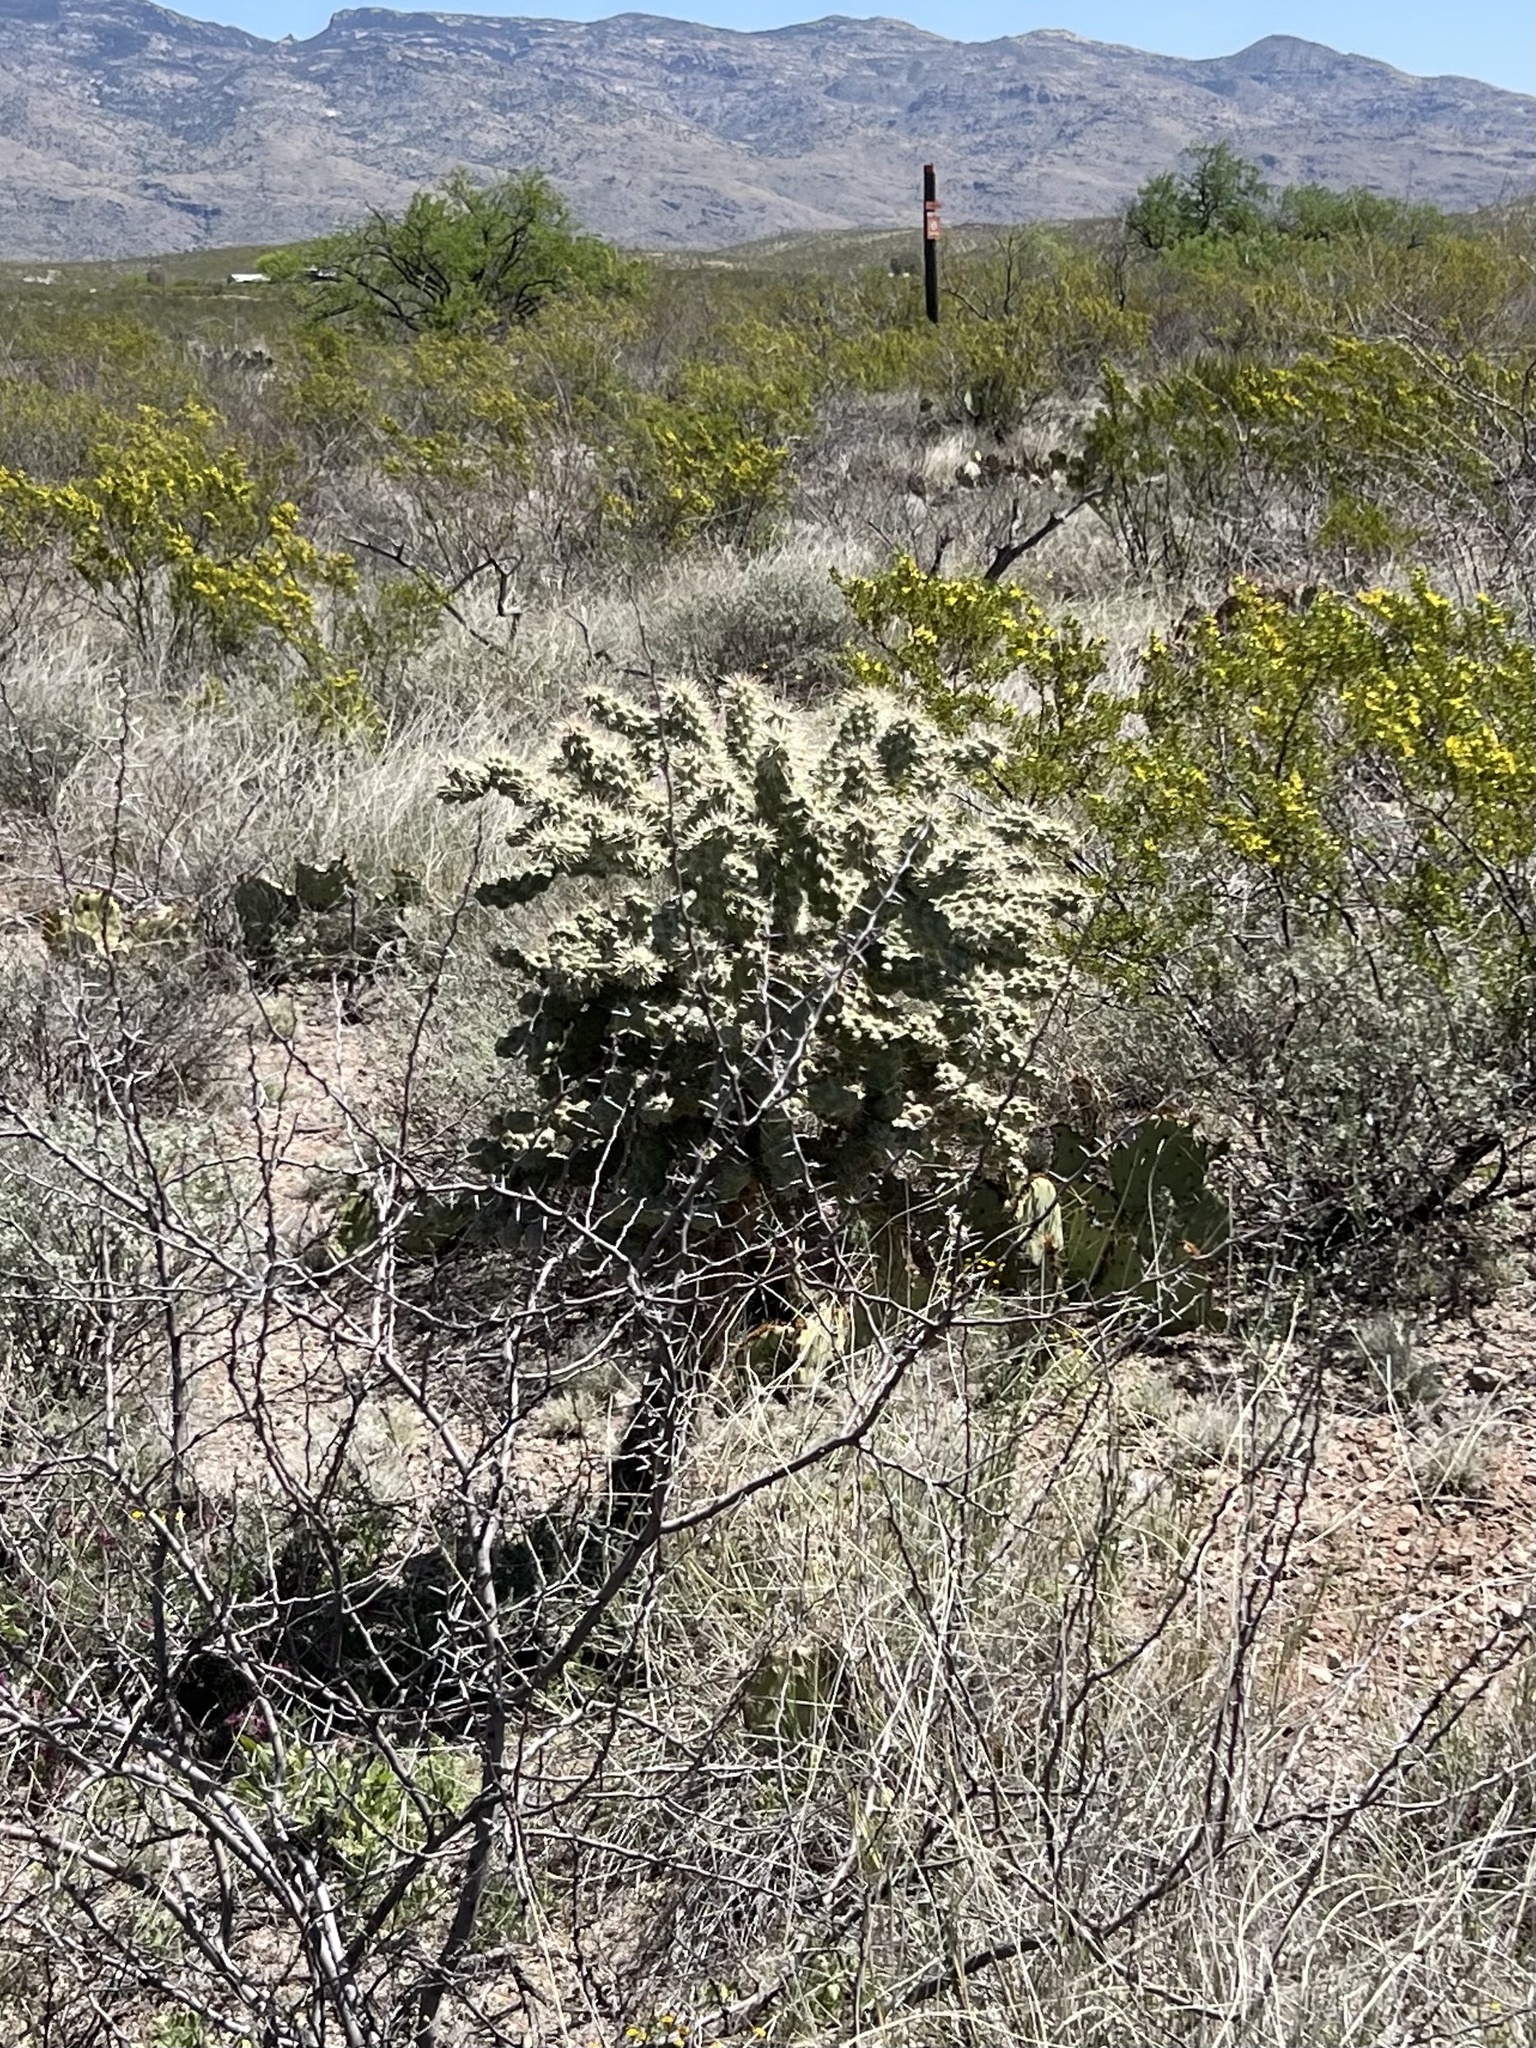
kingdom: Plantae
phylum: Tracheophyta
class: Magnoliopsida
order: Caryophyllales
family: Cactaceae
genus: Cylindropuntia
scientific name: Cylindropuntia fulgida
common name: Jumping cholla
